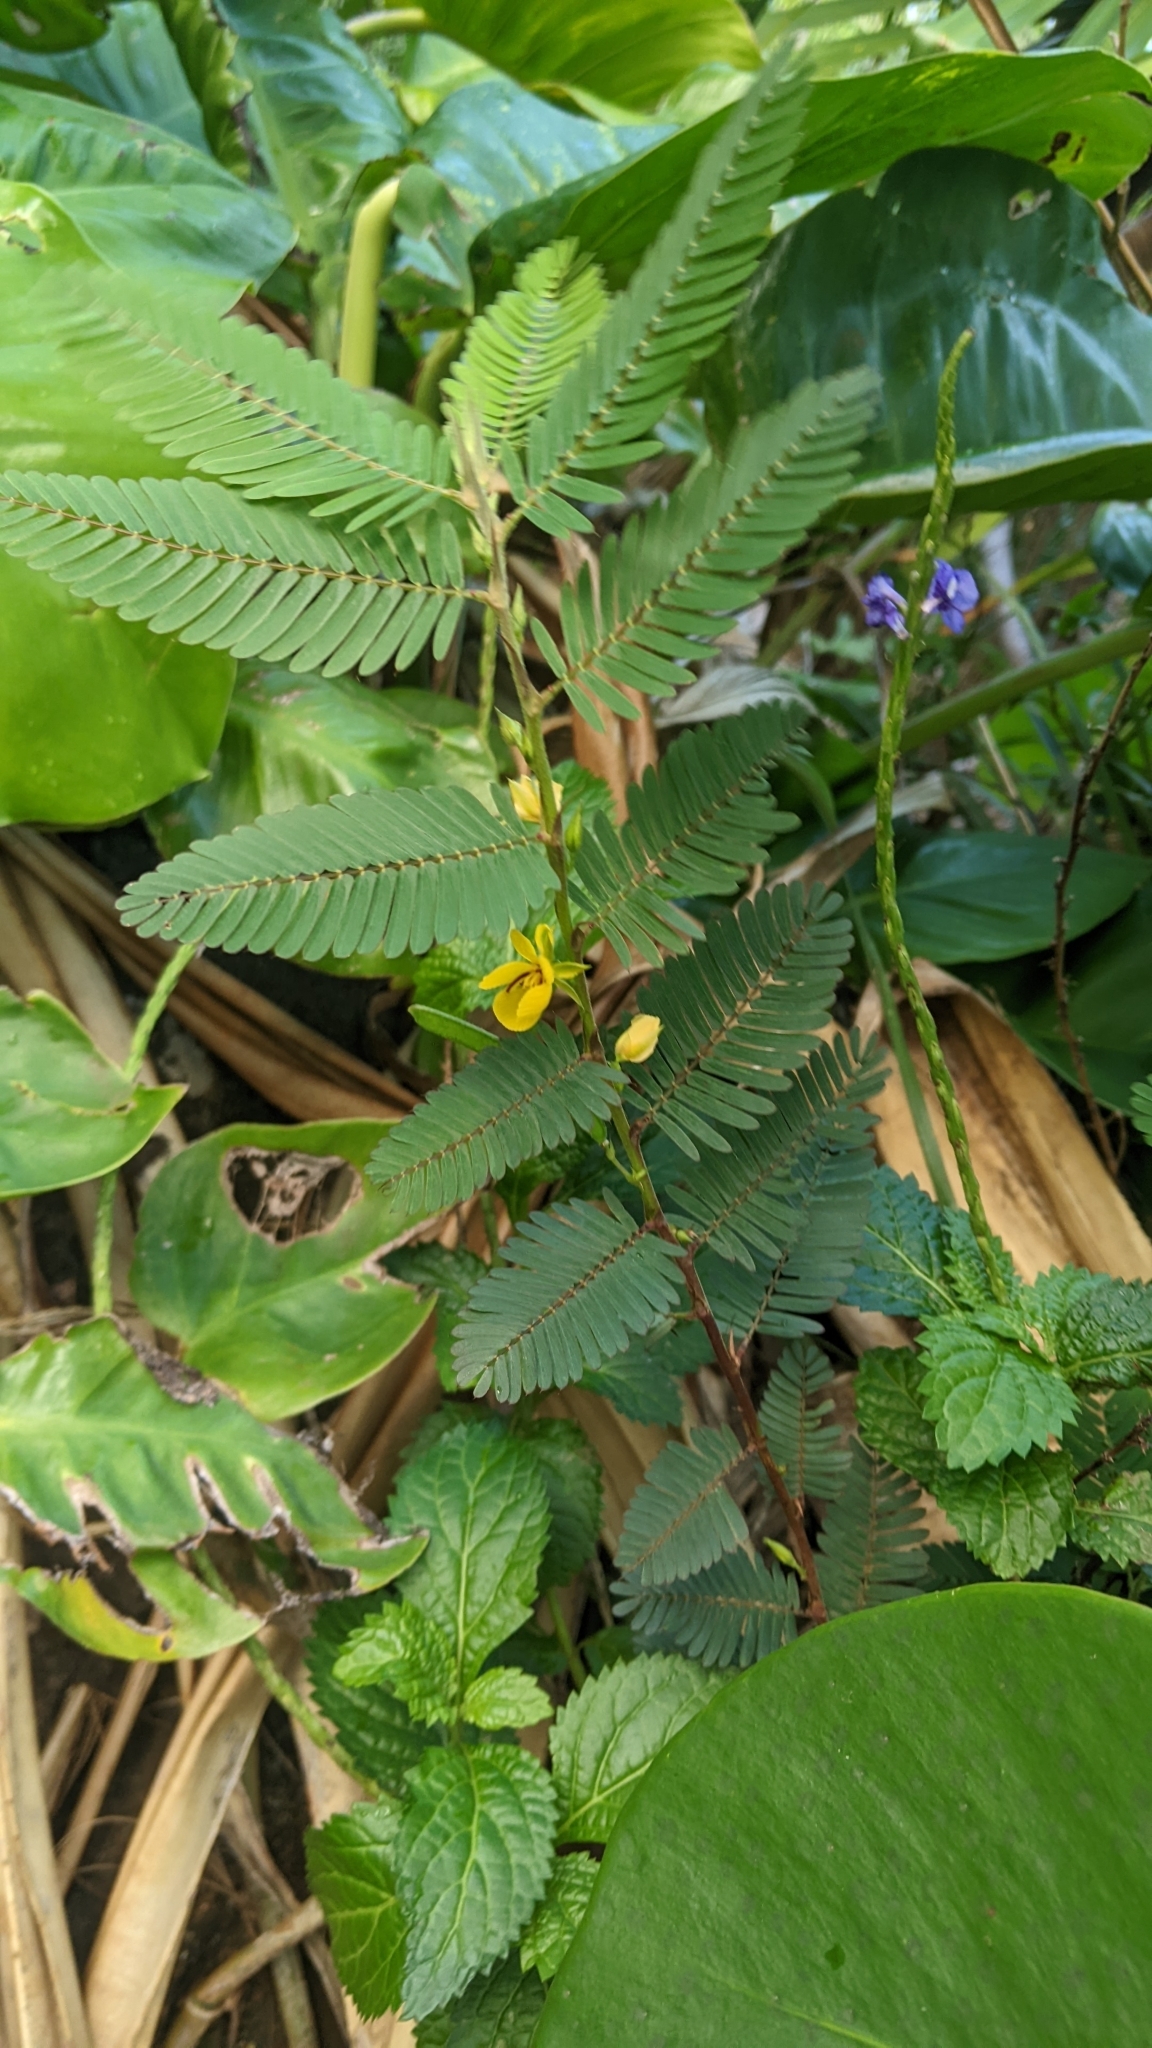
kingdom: Plantae
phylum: Tracheophyta
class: Magnoliopsida
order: Fabales
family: Fabaceae
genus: Chamaecrista
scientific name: Chamaecrista nictitans
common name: Sensitive cassia
